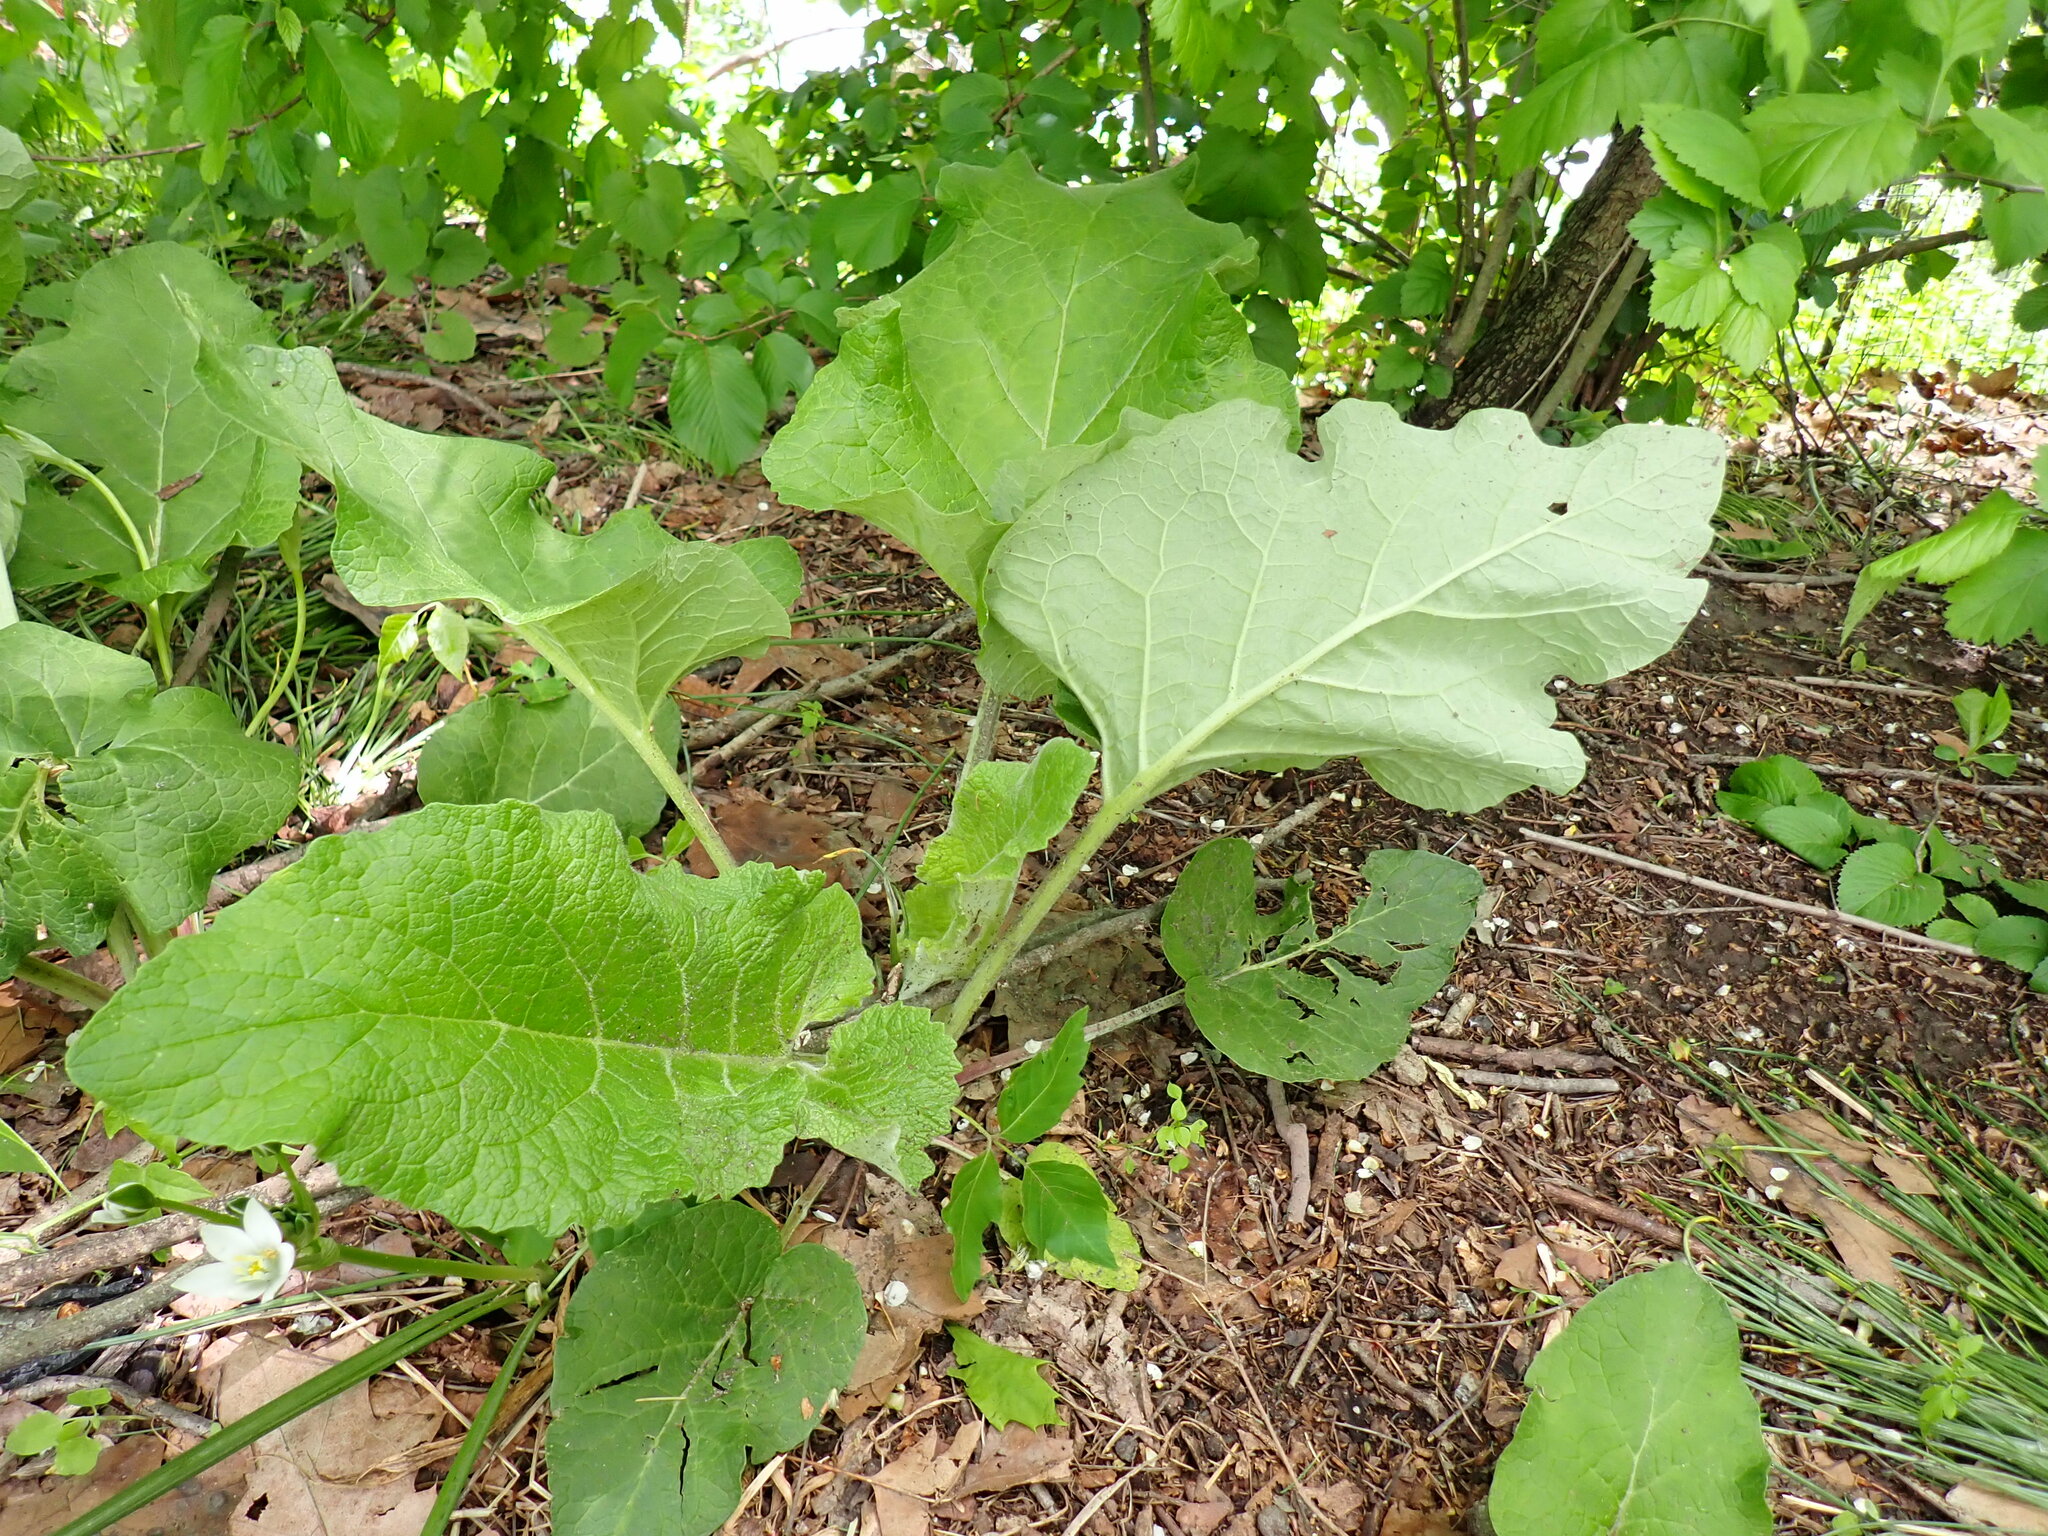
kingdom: Plantae
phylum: Tracheophyta
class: Magnoliopsida
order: Asterales
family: Asteraceae
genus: Arctium
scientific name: Arctium
